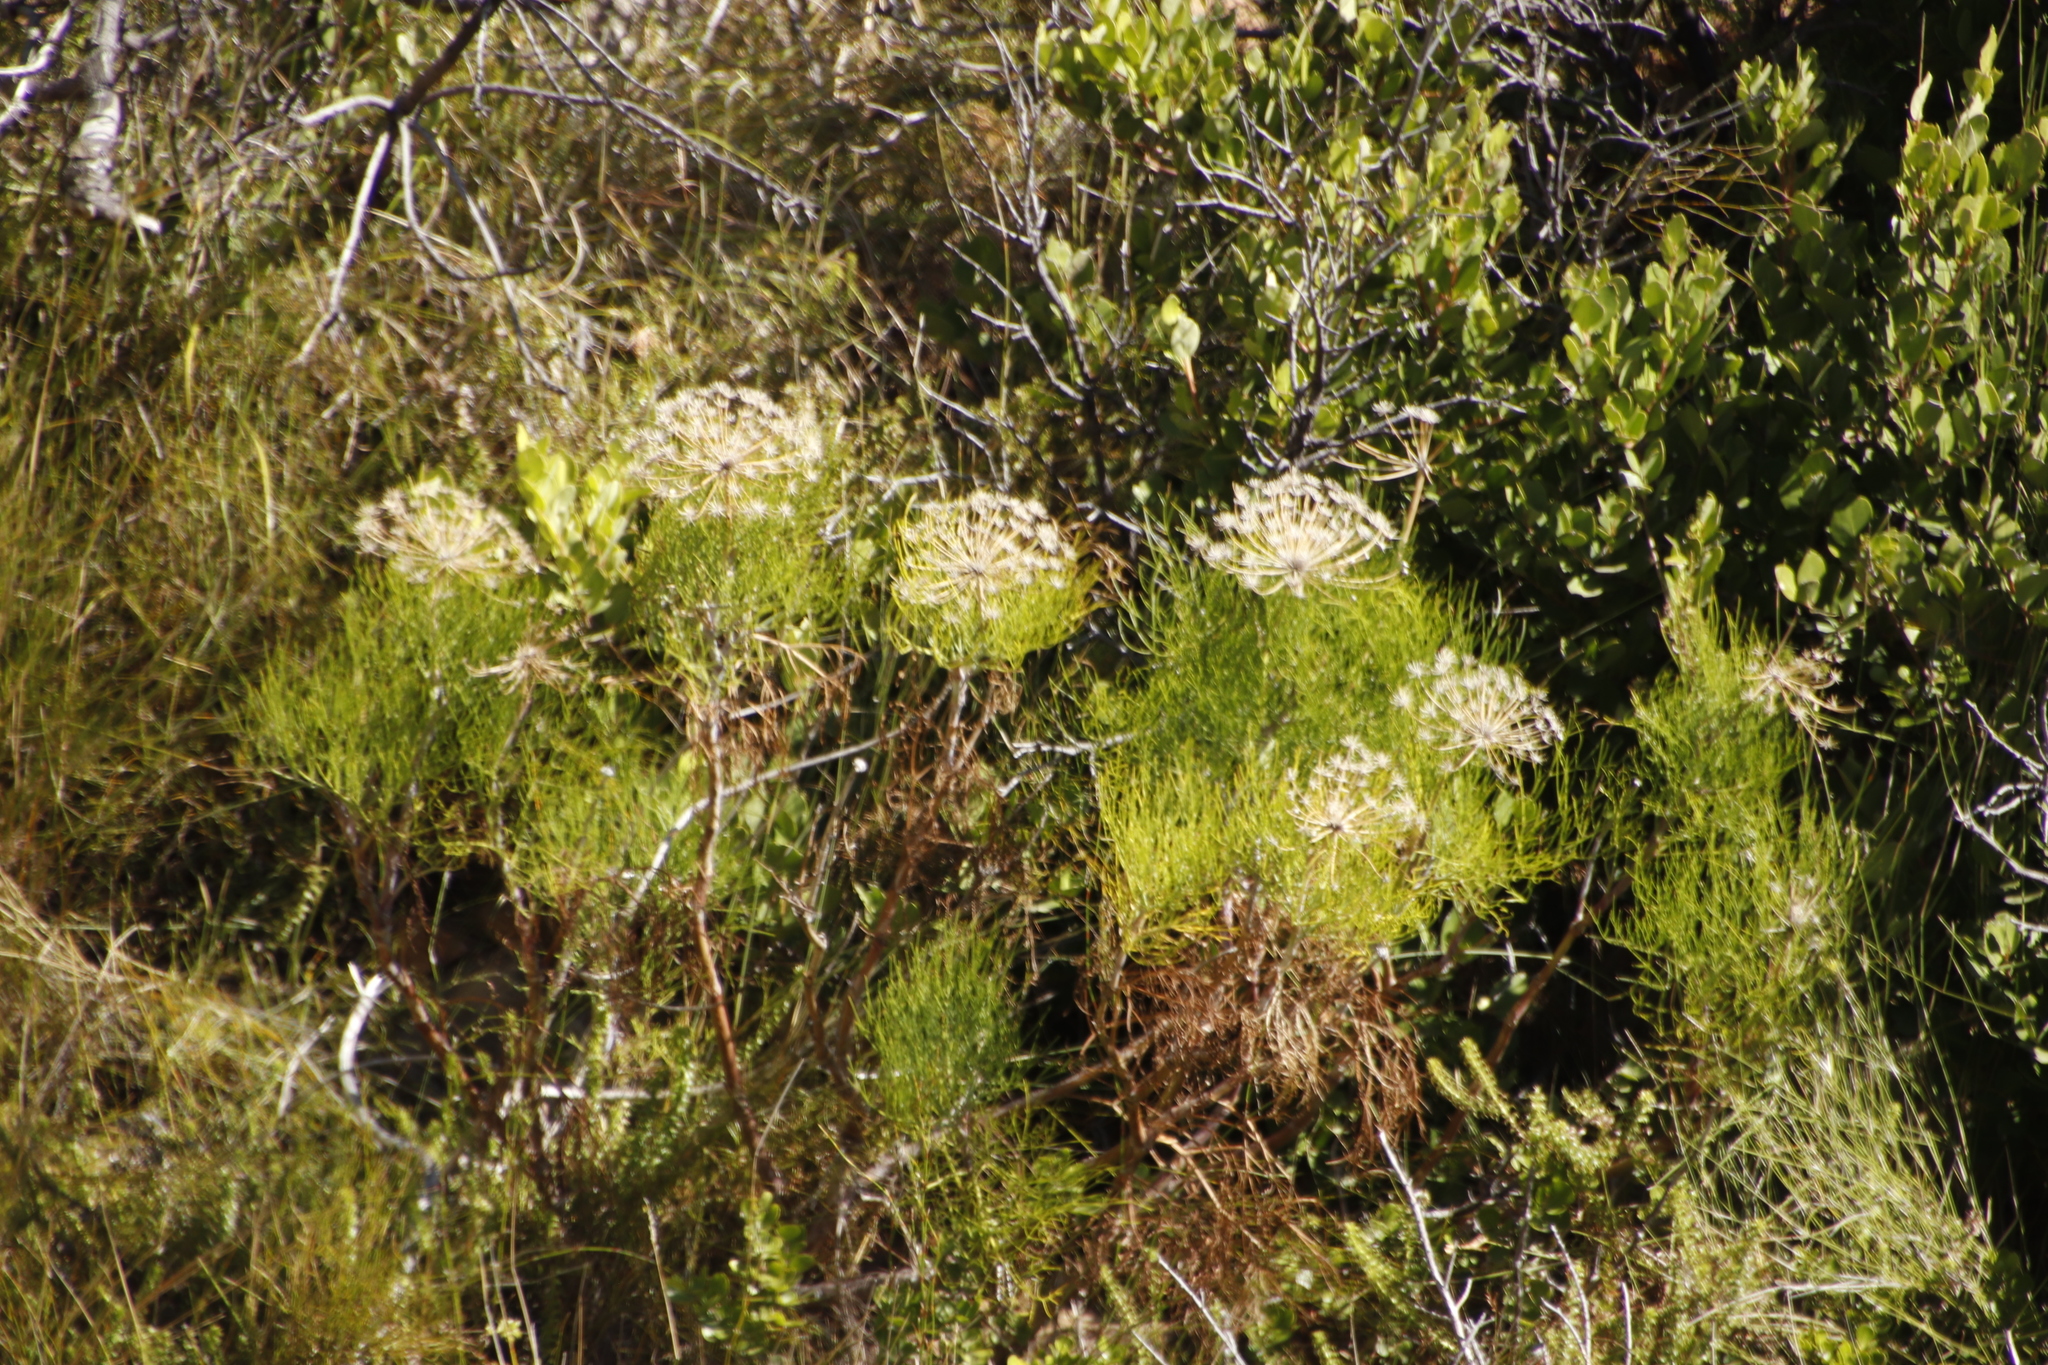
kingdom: Plantae
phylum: Tracheophyta
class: Magnoliopsida
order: Apiales
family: Apiaceae
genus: Notobubon
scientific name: Notobubon capense
